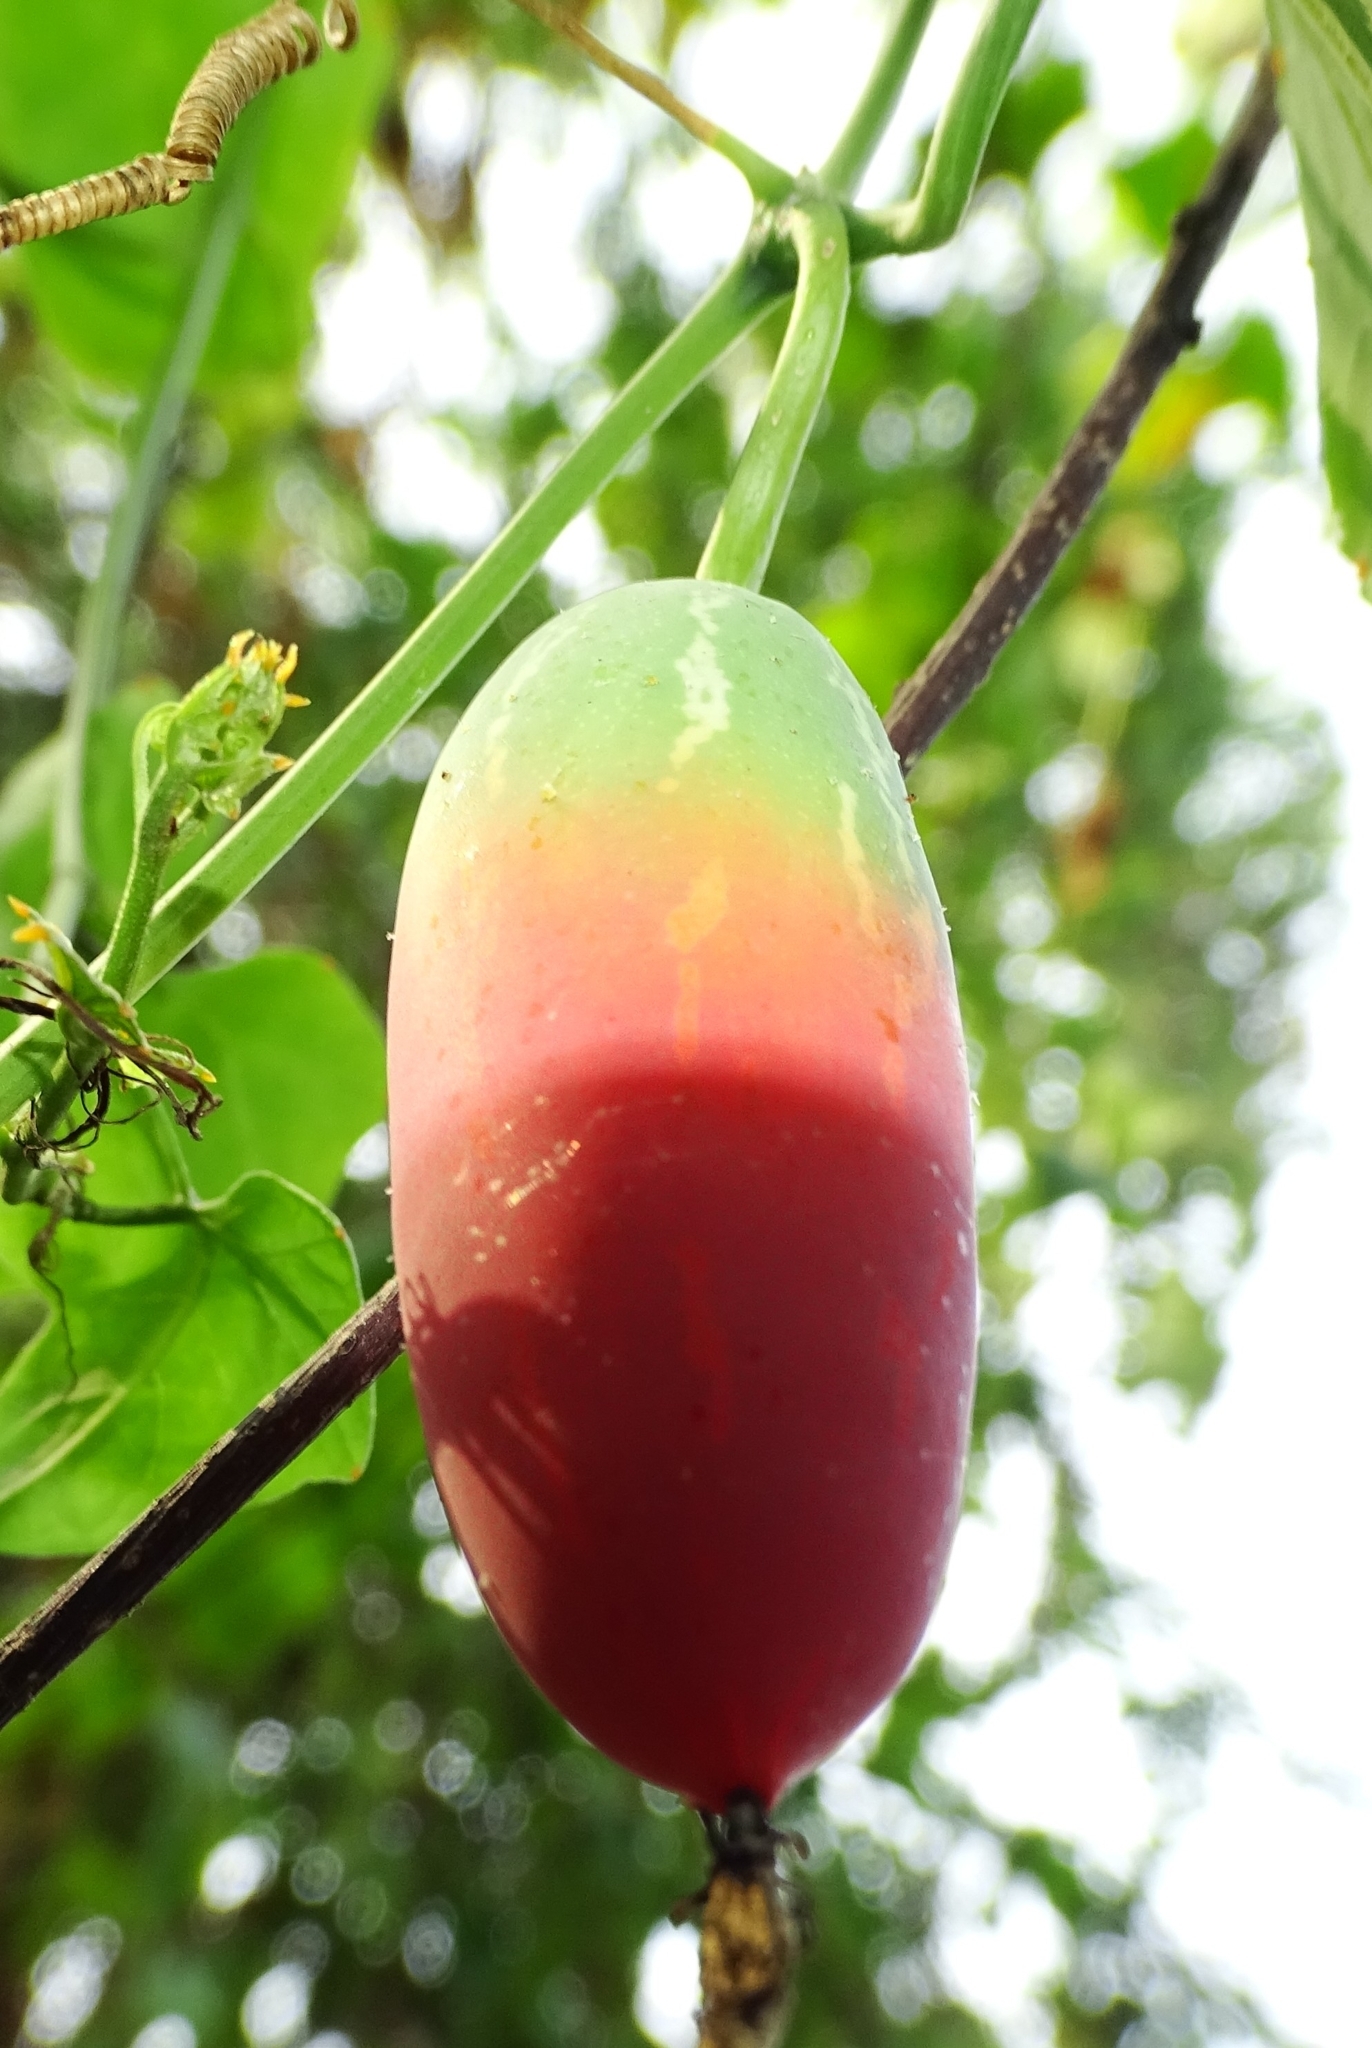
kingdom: Plantae
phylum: Tracheophyta
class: Magnoliopsida
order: Cucurbitales
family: Cucurbitaceae
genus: Coccinia
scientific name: Coccinia grandis
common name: Ivy gourd
